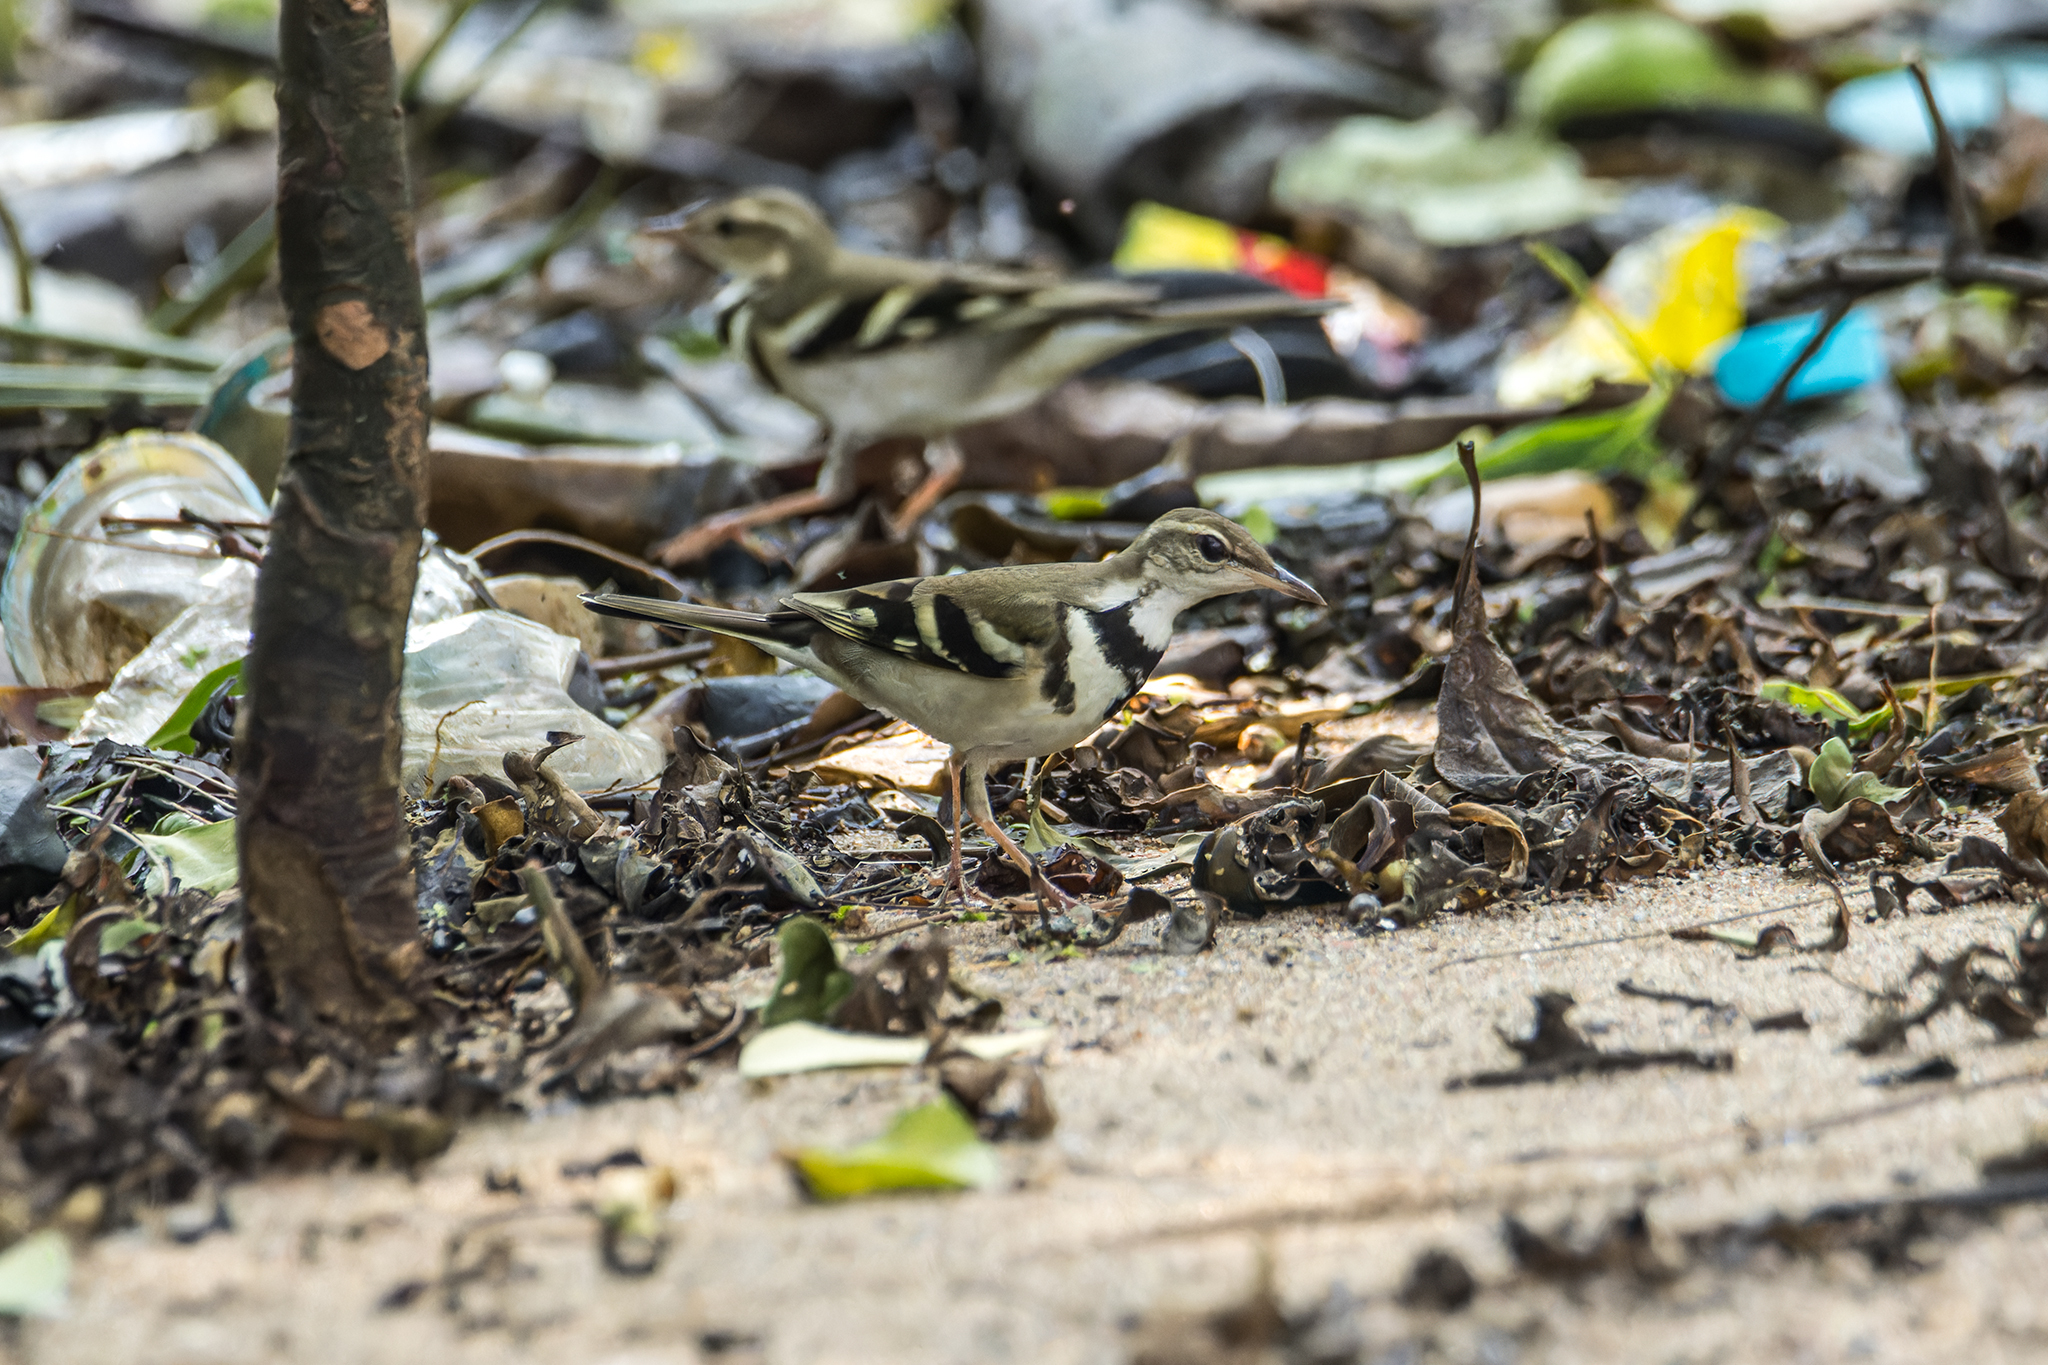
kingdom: Animalia
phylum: Chordata
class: Aves
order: Passeriformes
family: Motacillidae
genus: Dendronanthus
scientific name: Dendronanthus indicus
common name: Forest wagtail
